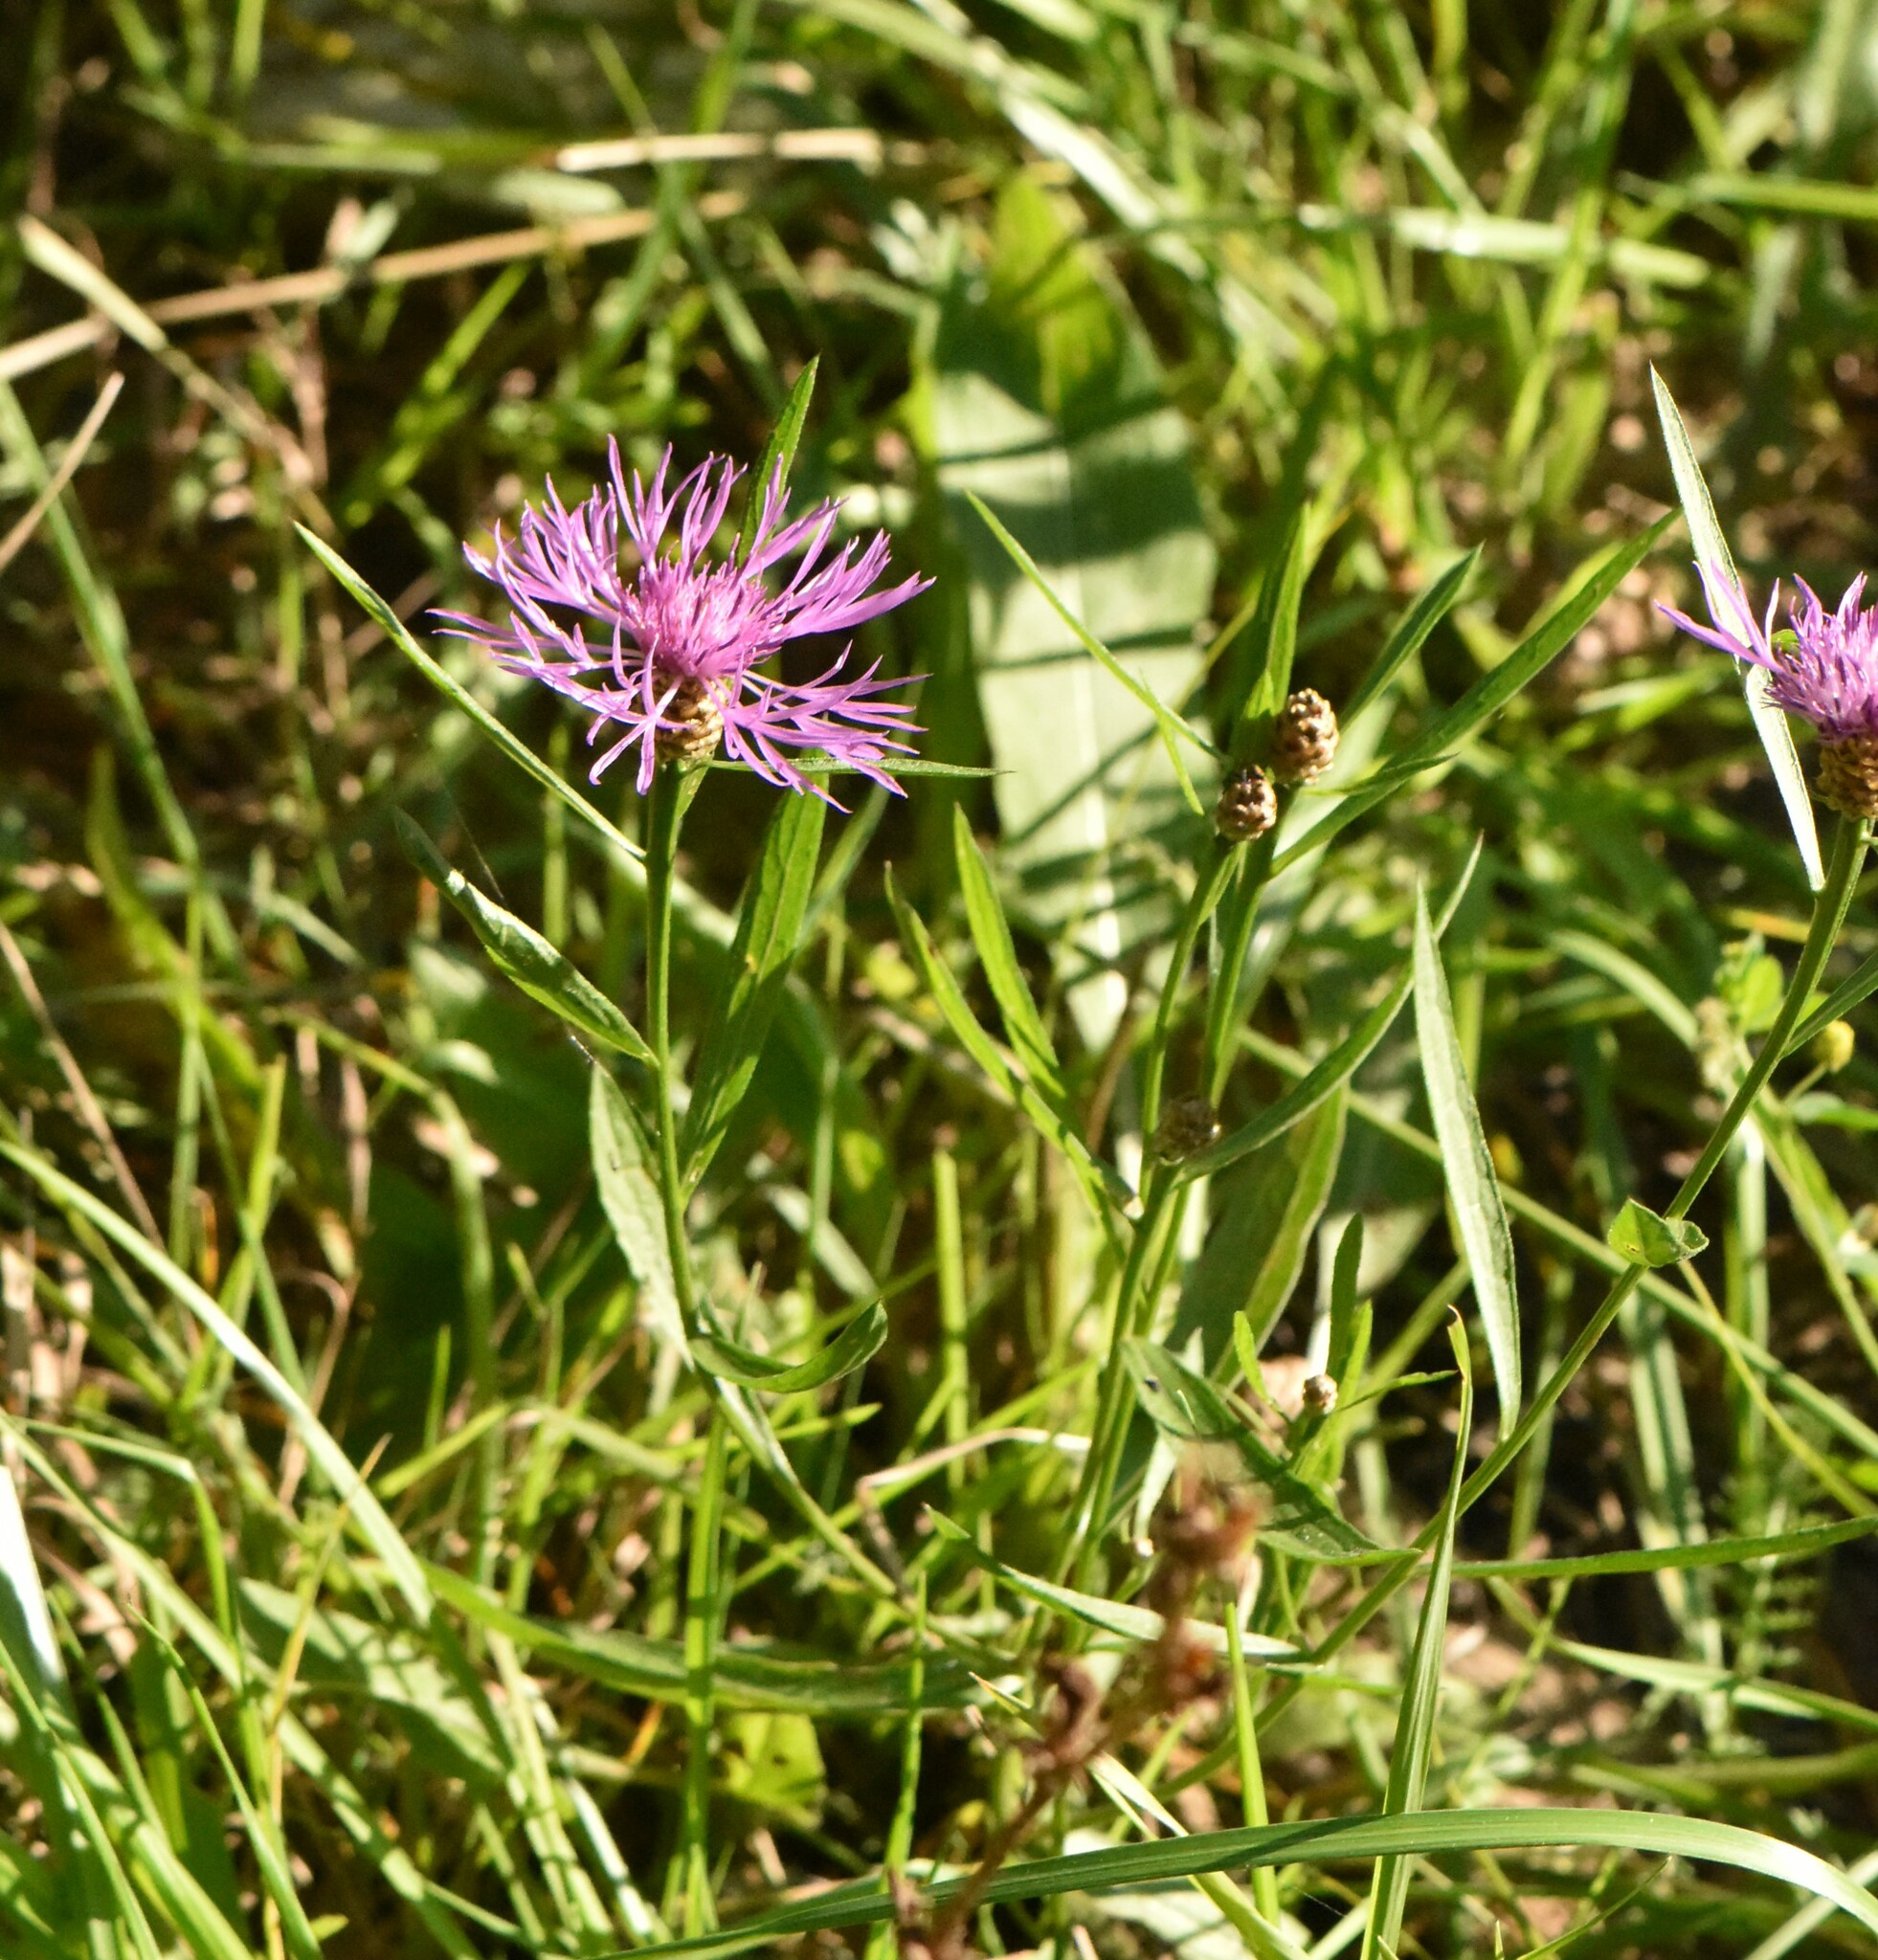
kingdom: Plantae
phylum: Tracheophyta
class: Magnoliopsida
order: Asterales
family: Asteraceae
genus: Centaurea
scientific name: Centaurea jacea
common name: Brown knapweed
